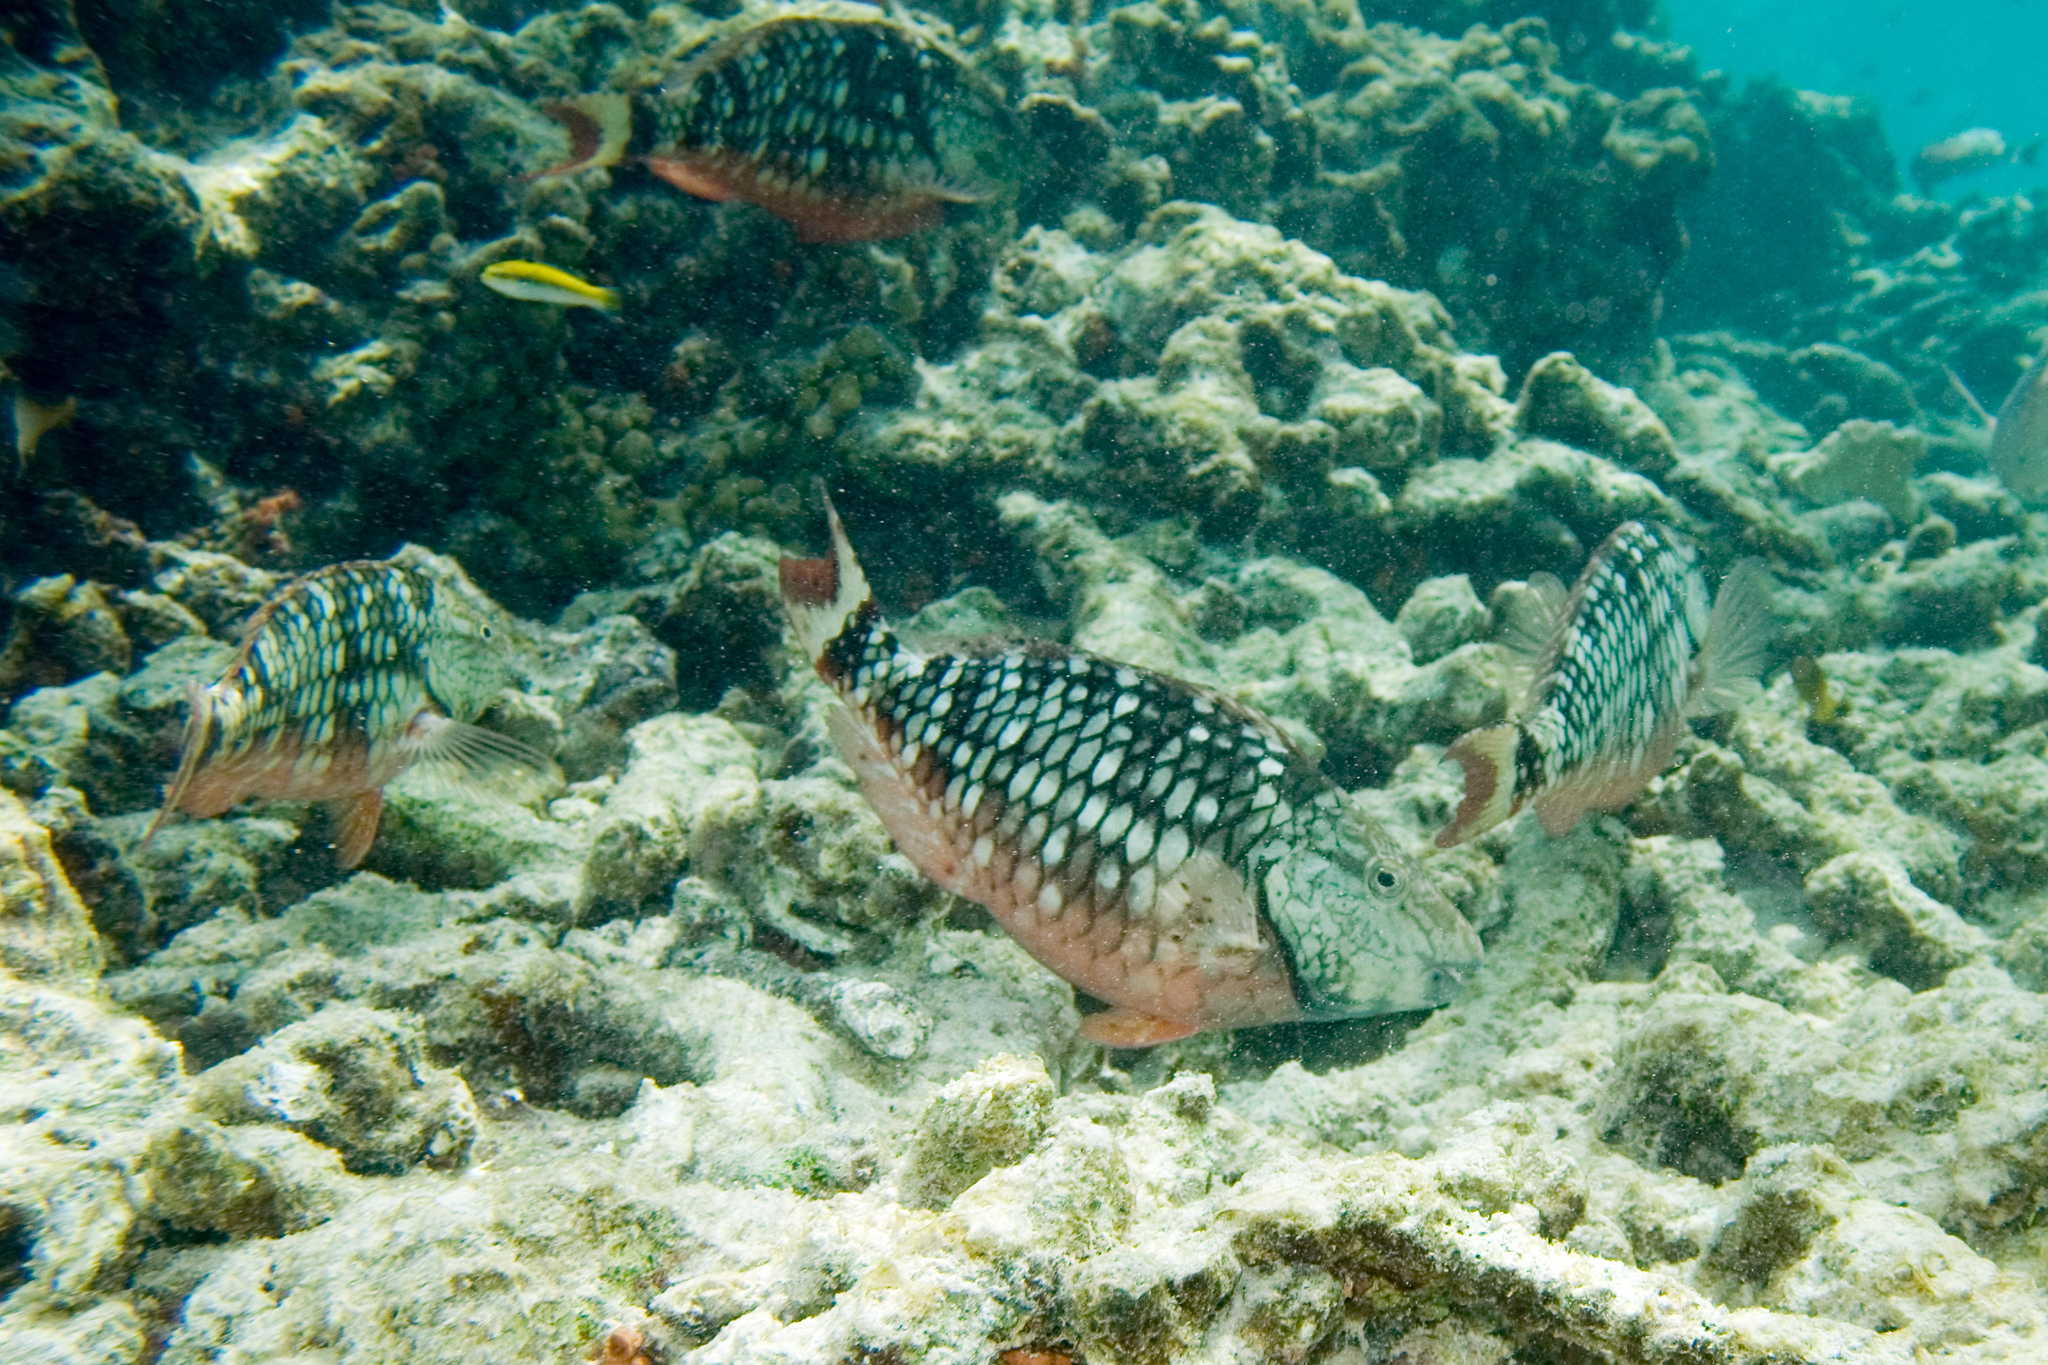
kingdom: Animalia
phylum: Chordata
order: Perciformes
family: Scaridae
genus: Sparisoma
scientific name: Sparisoma viride
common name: Stoplight parrotfish
